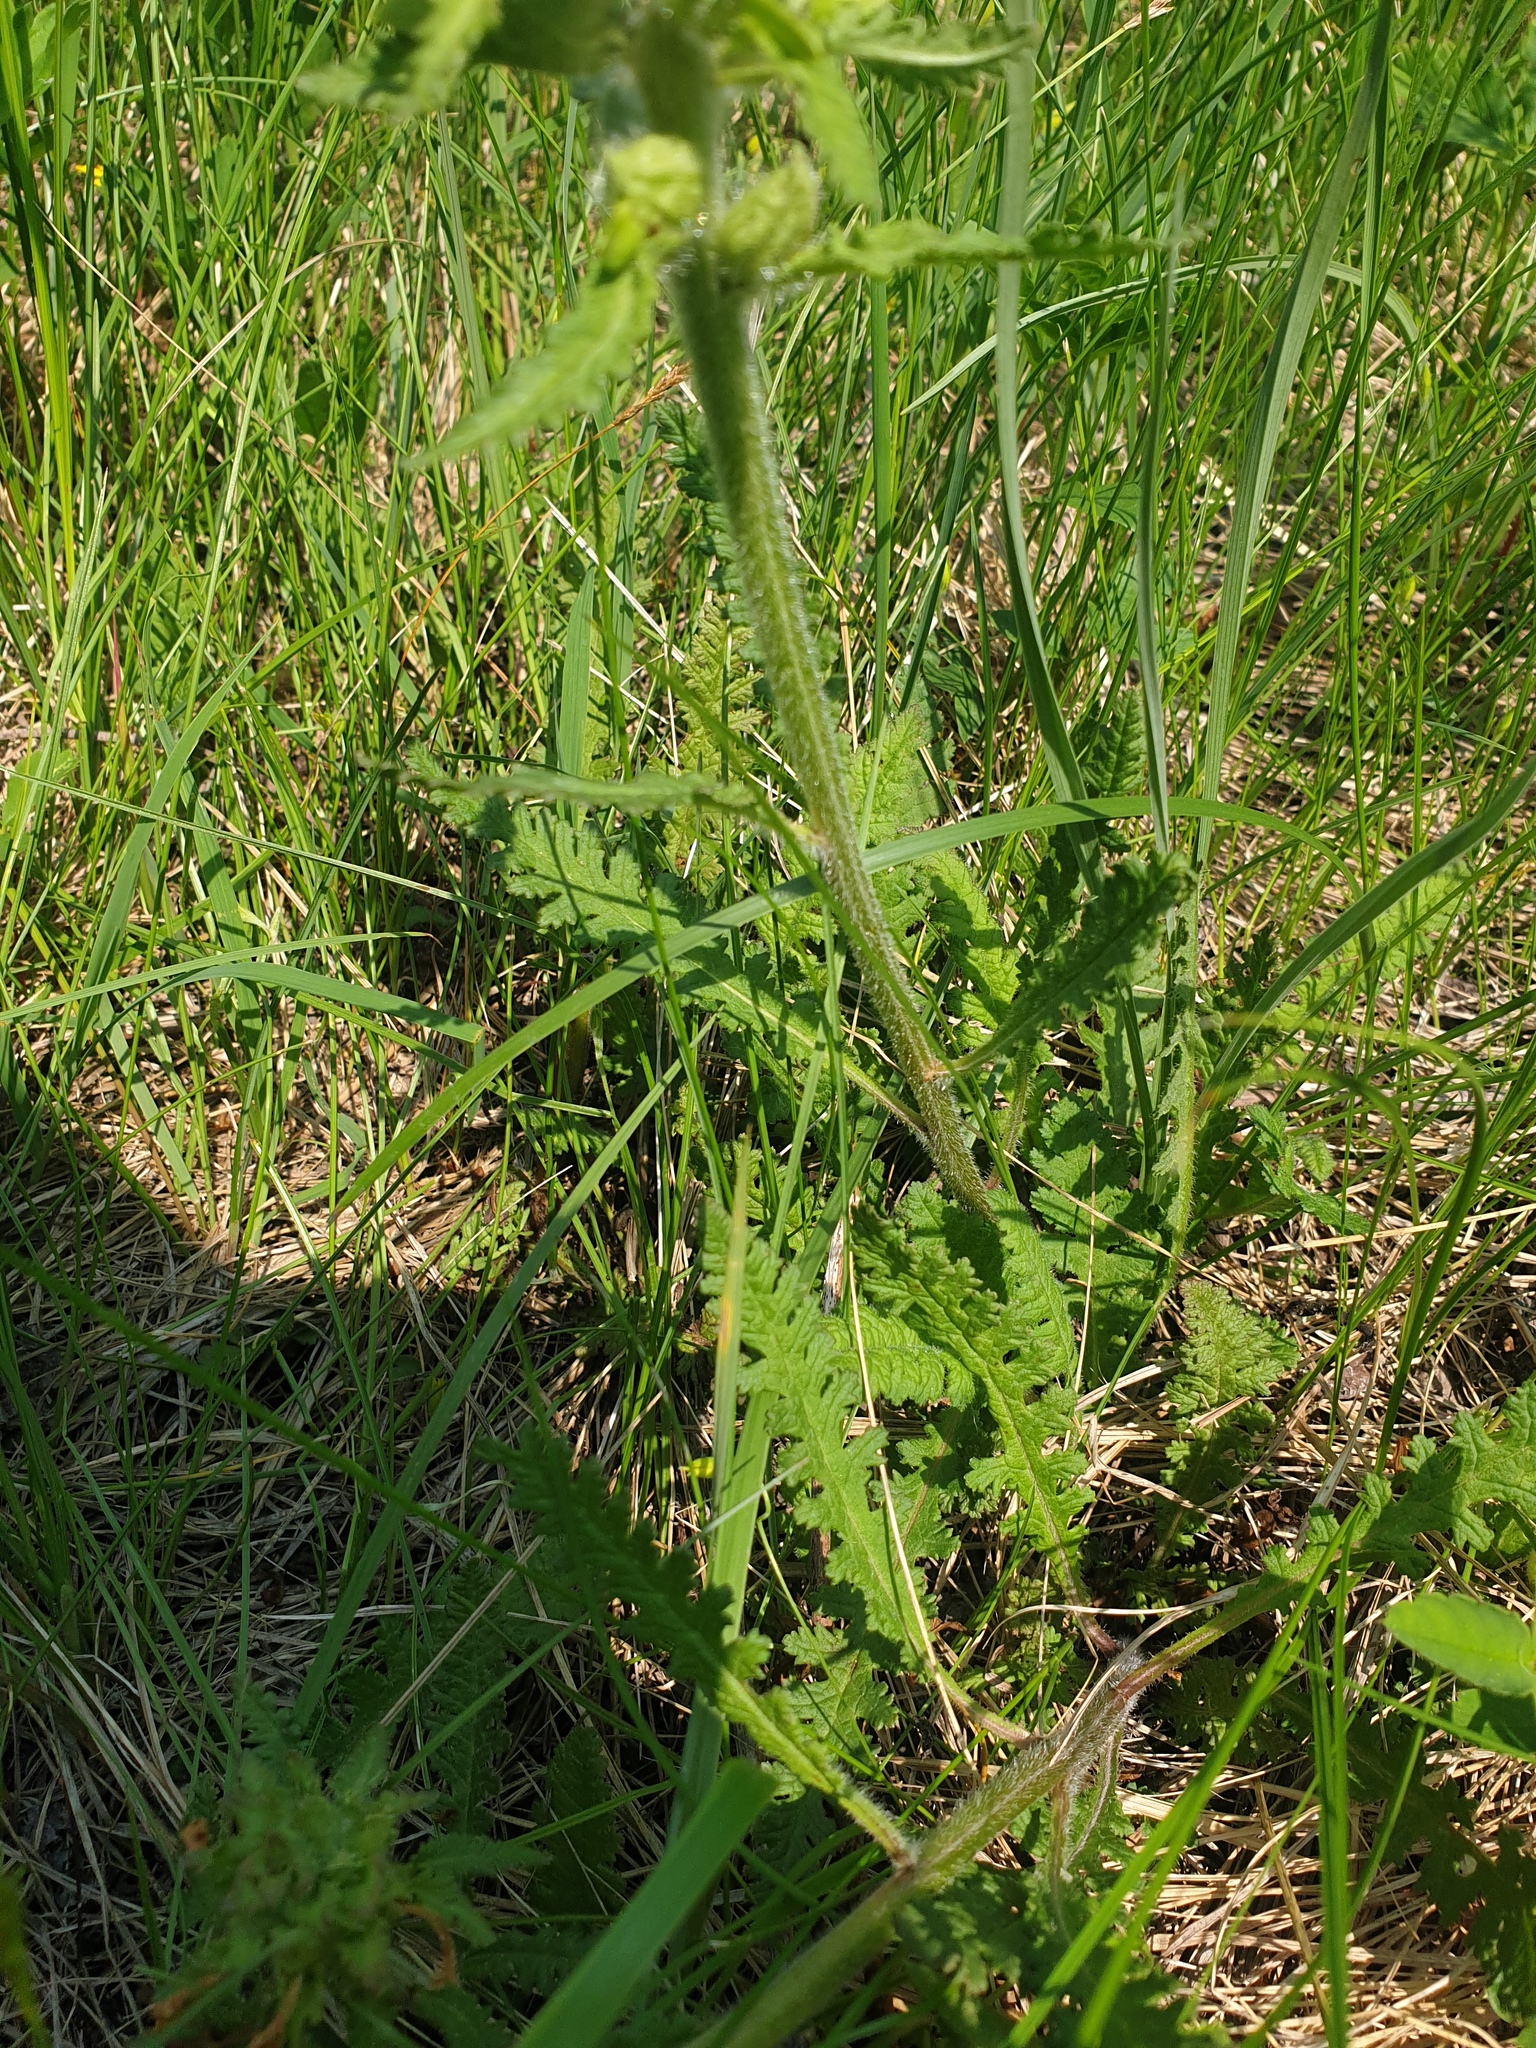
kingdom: Plantae
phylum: Tracheophyta
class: Magnoliopsida
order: Lamiales
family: Orobanchaceae
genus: Pedicularis
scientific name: Pedicularis canadensis
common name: Early lousewort
